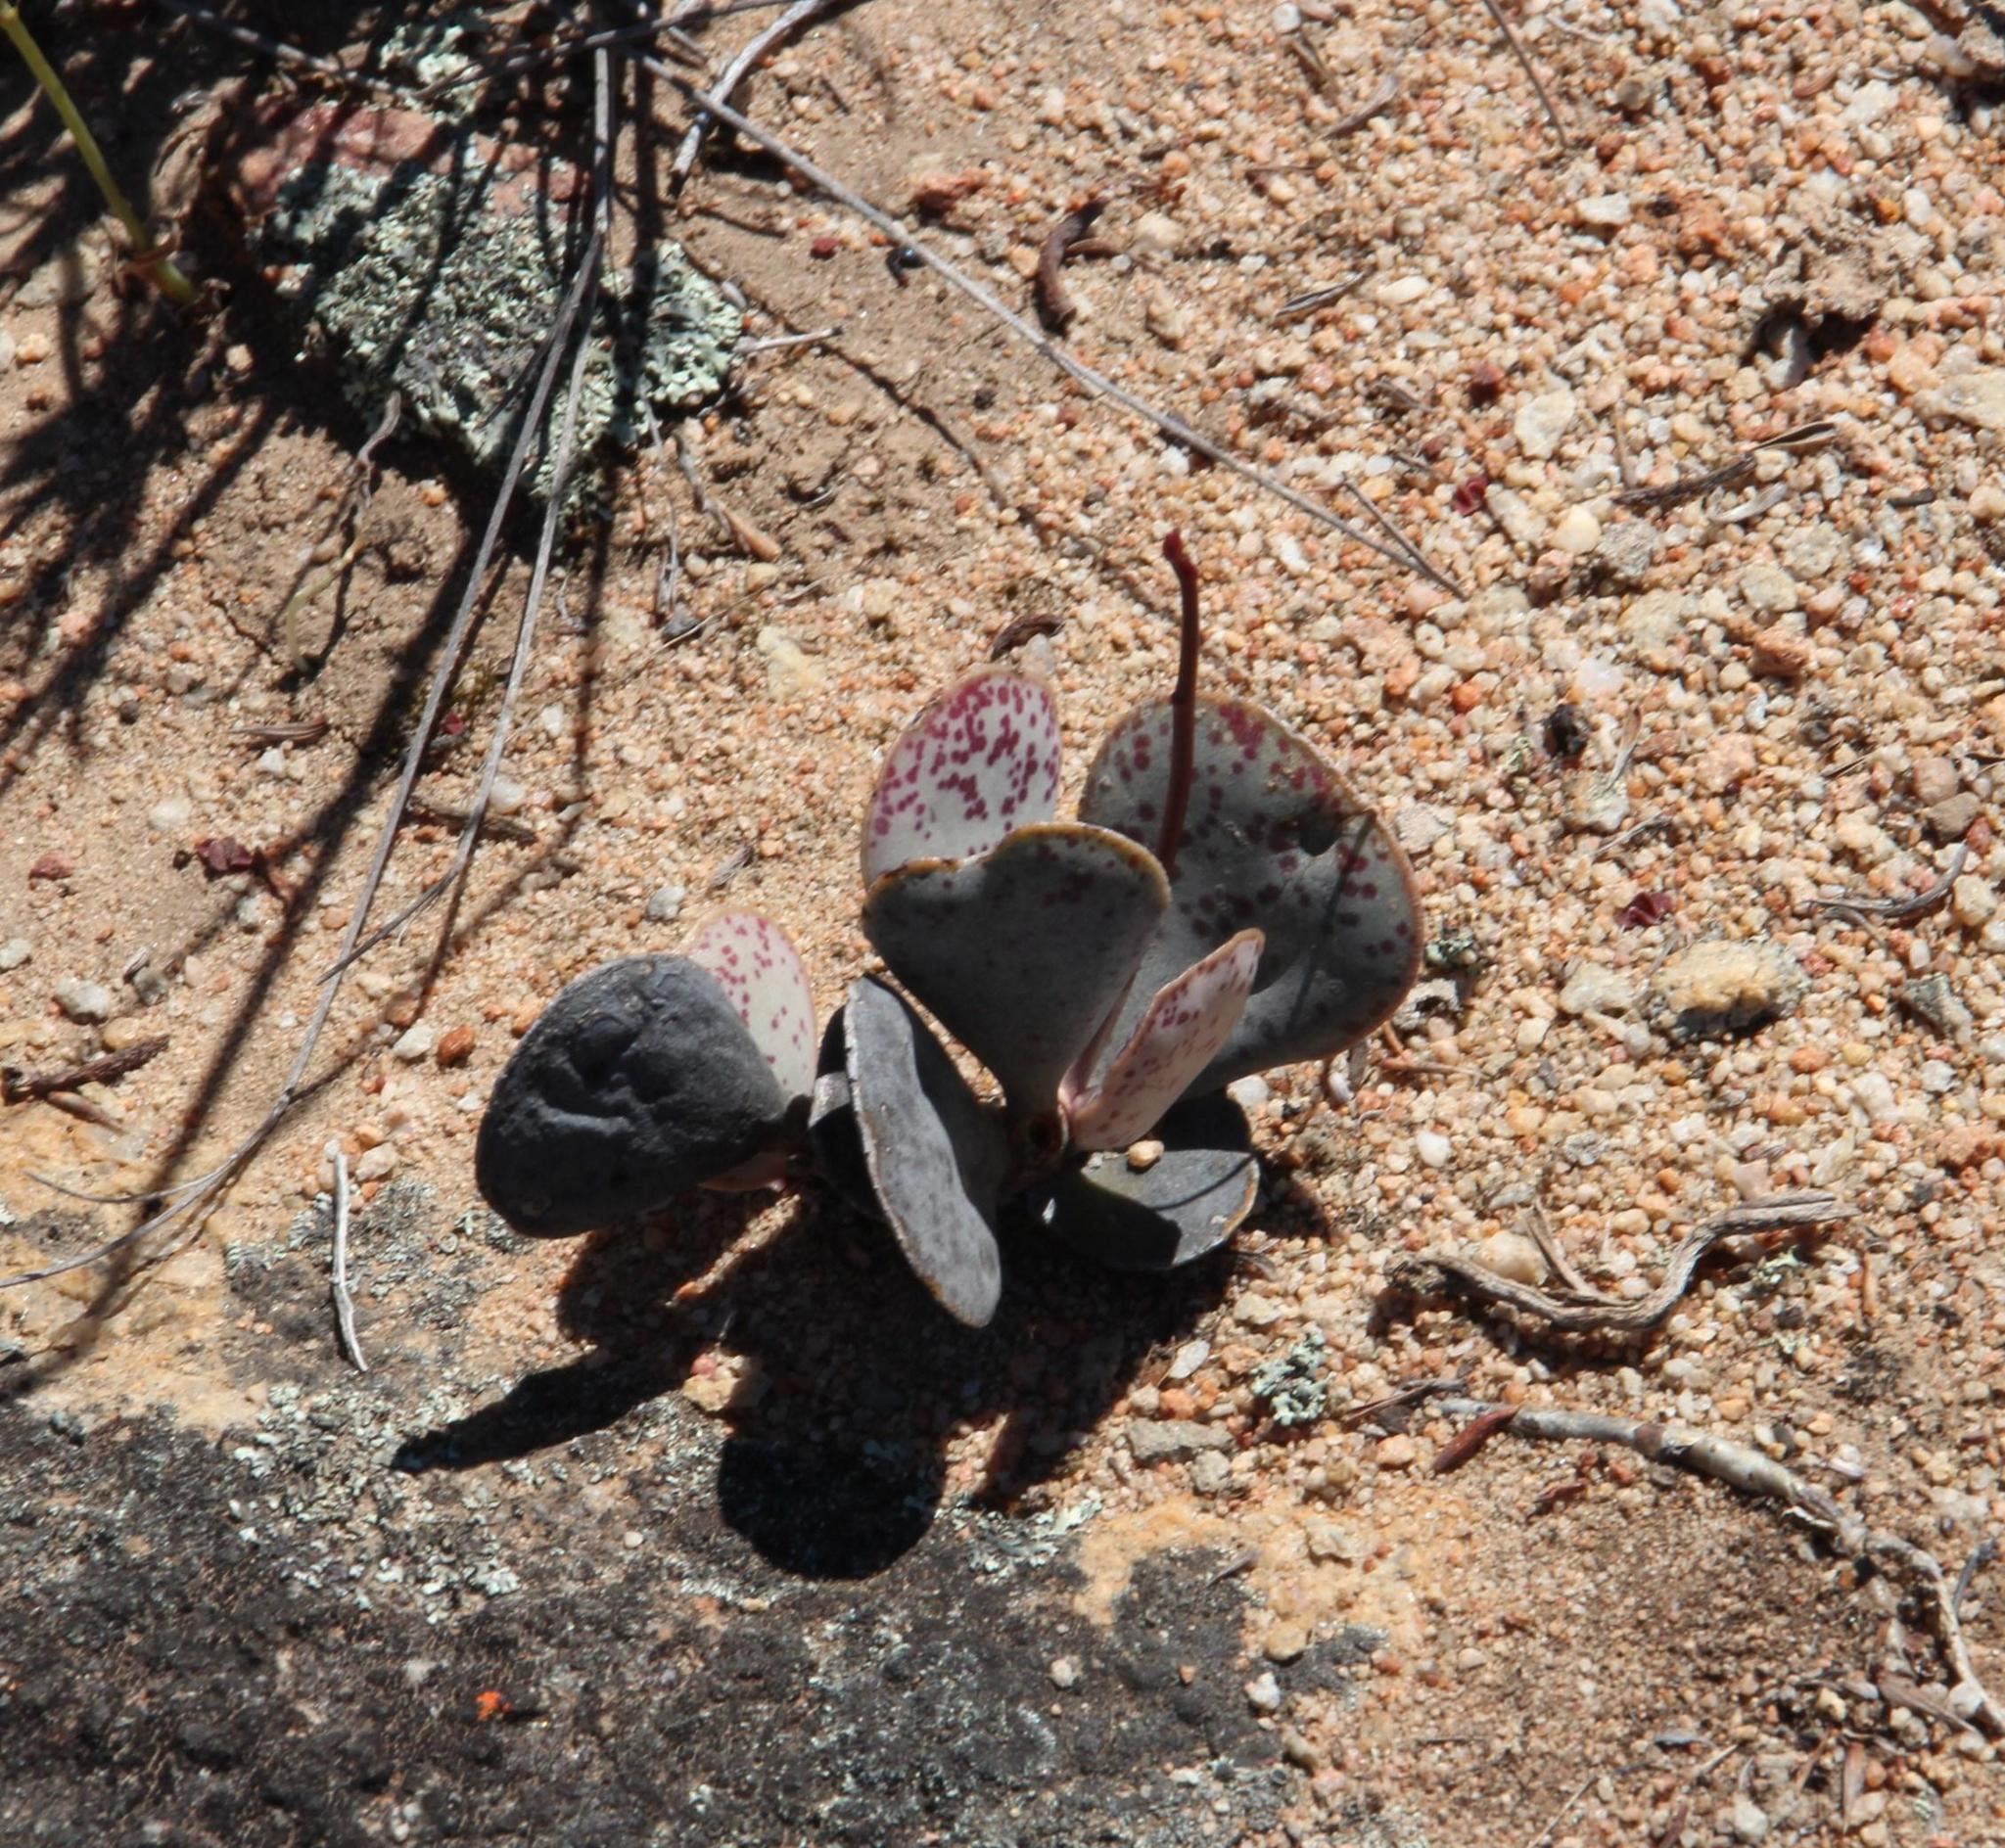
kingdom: Plantae
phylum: Tracheophyta
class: Magnoliopsida
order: Saxifragales
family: Crassulaceae
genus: Adromischus
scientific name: Adromischus triflorus
